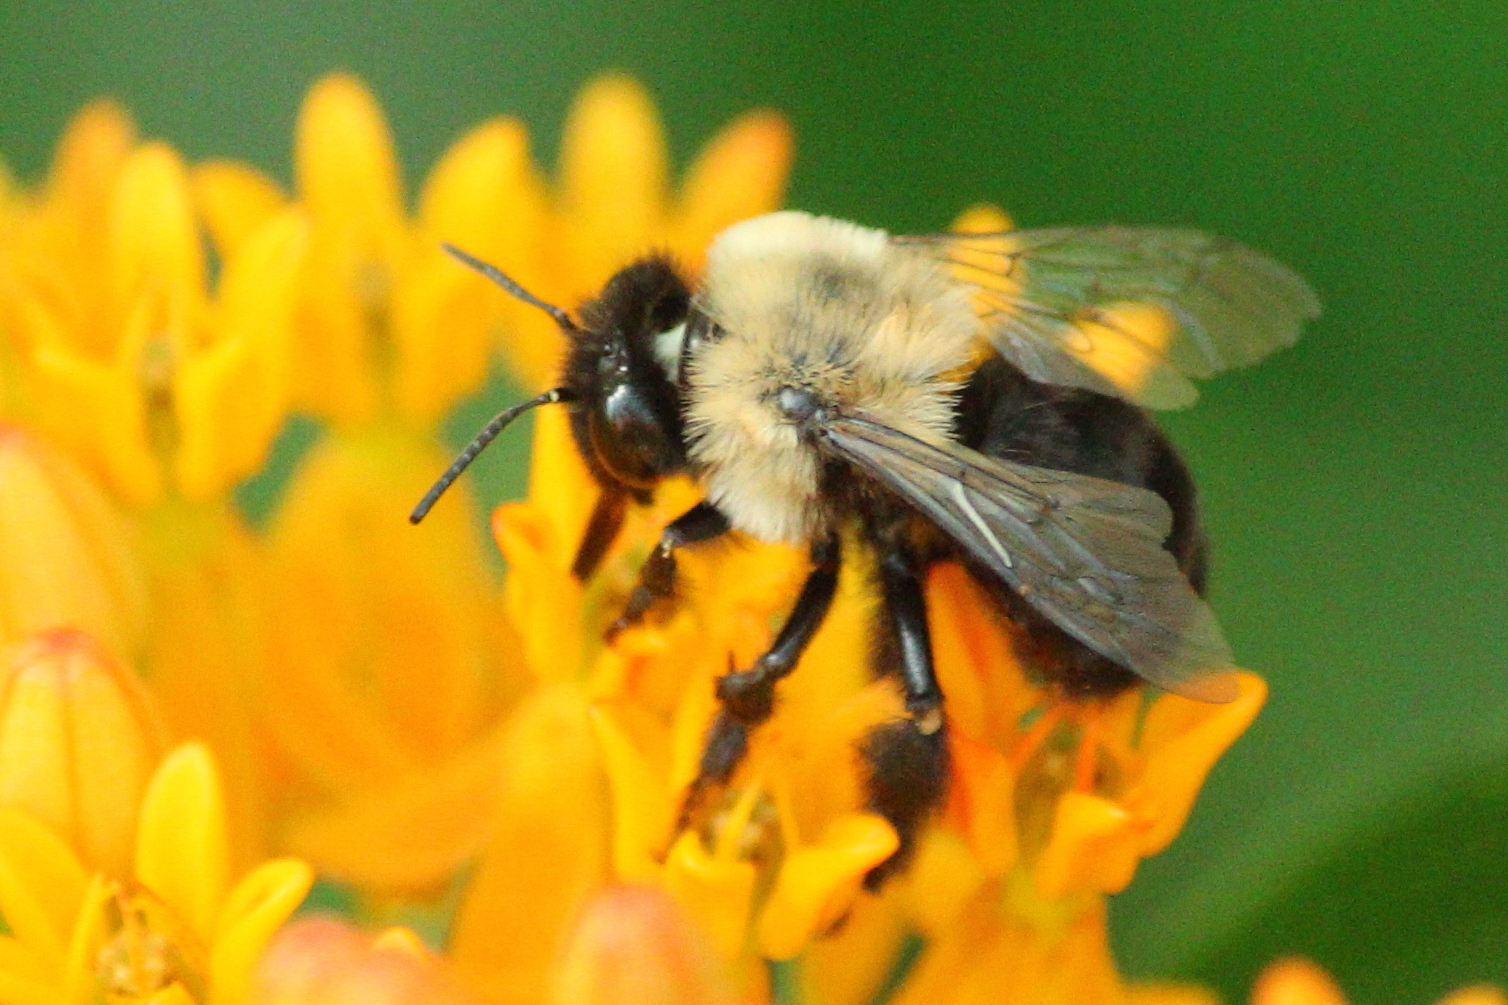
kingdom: Animalia
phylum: Arthropoda
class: Insecta
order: Hymenoptera
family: Apidae
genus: Anthophora
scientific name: Anthophora abrupta
